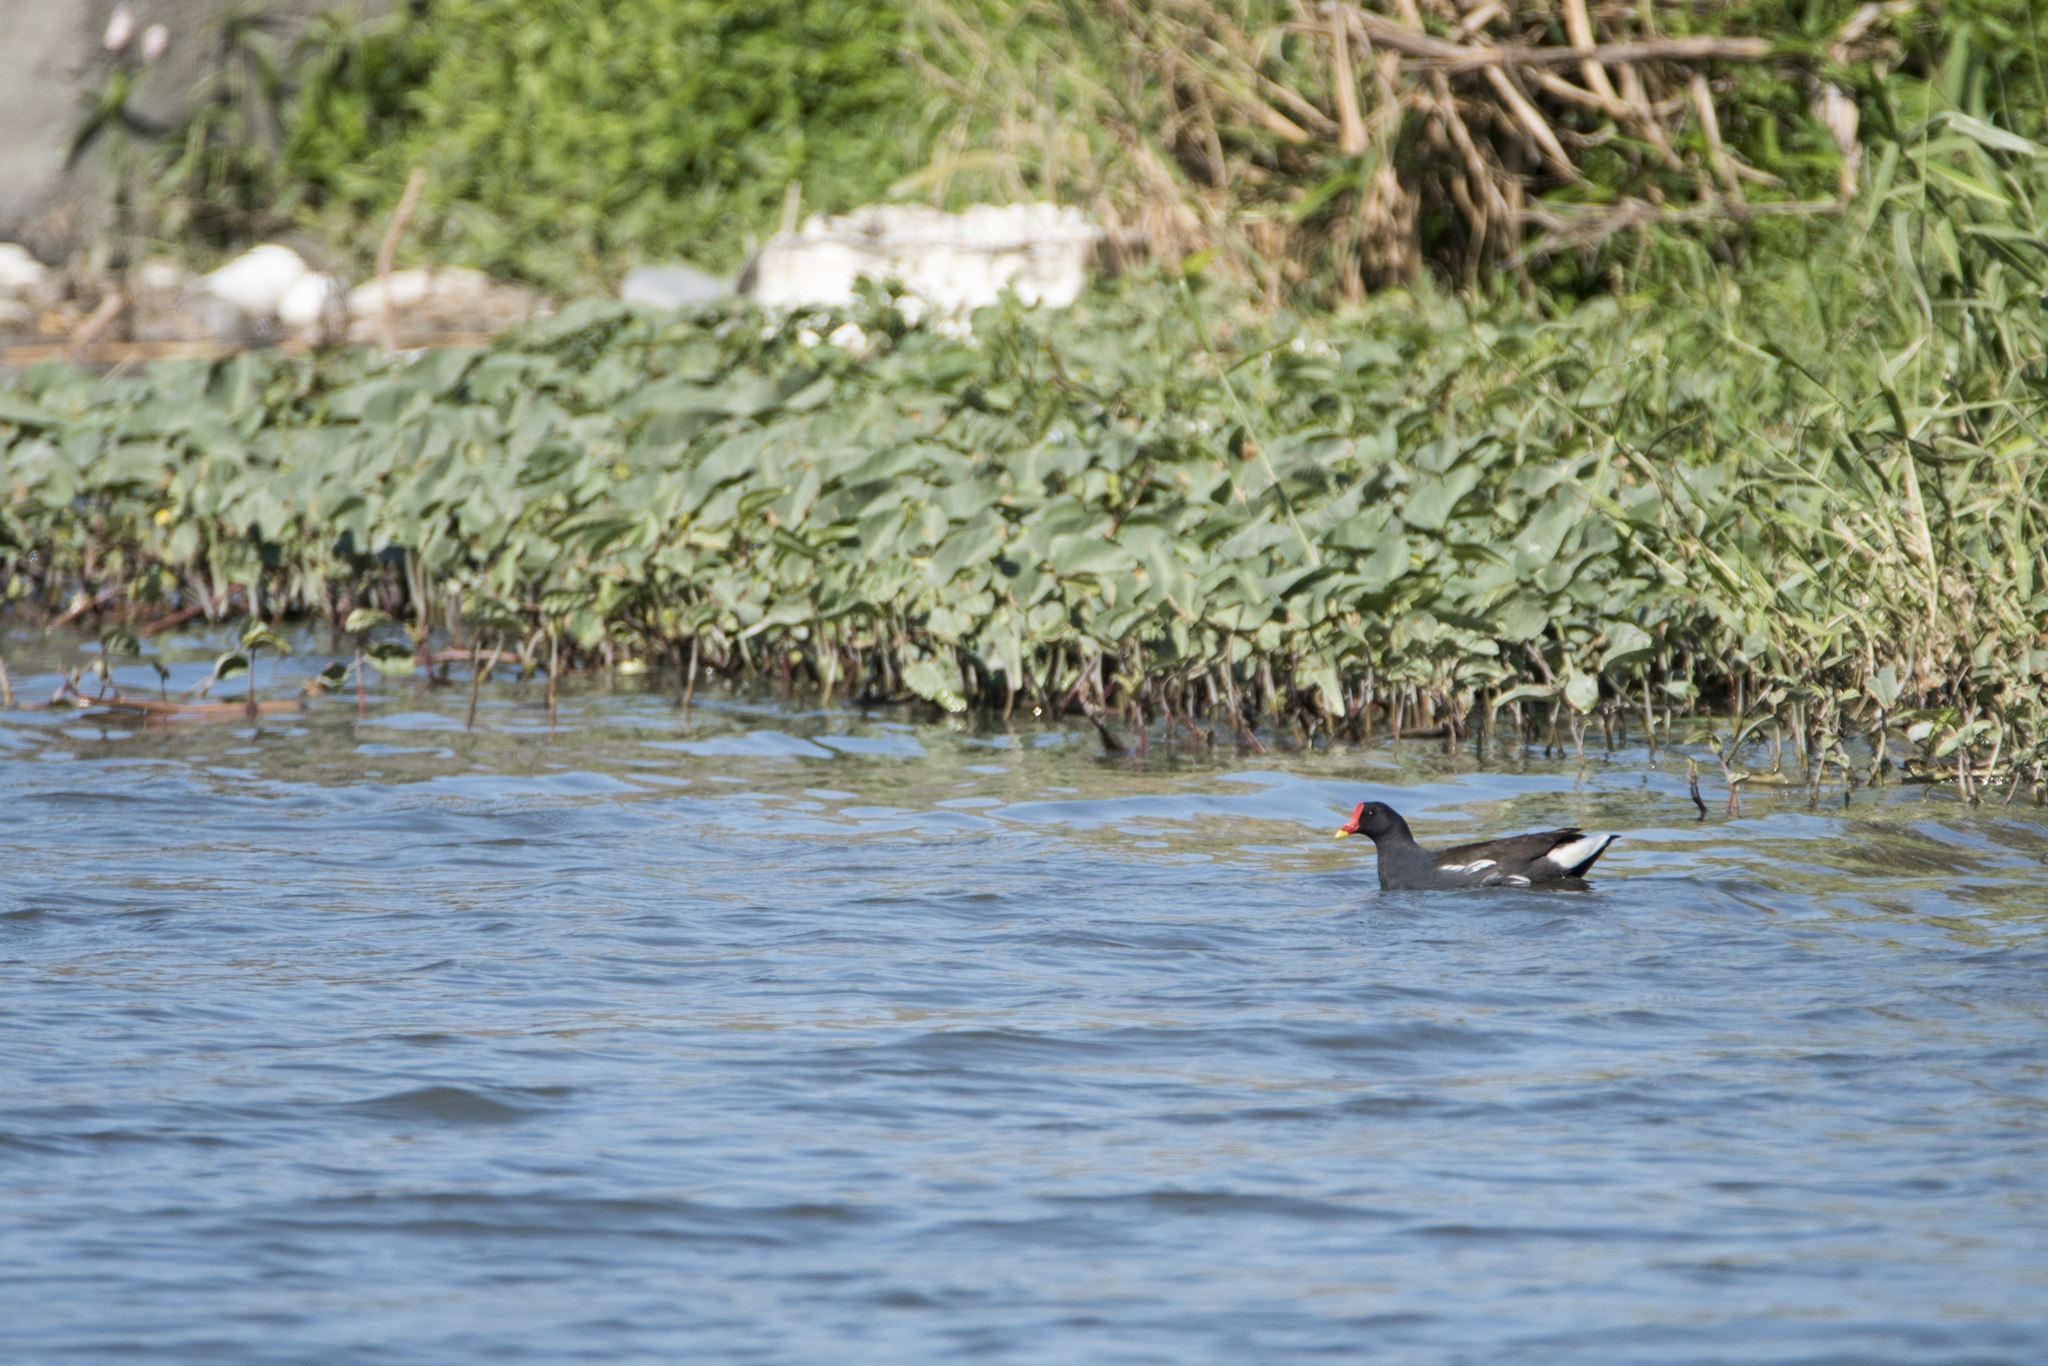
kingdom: Animalia
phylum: Chordata
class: Aves
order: Gruiformes
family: Rallidae
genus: Gallinula
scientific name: Gallinula chloropus
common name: Common moorhen
